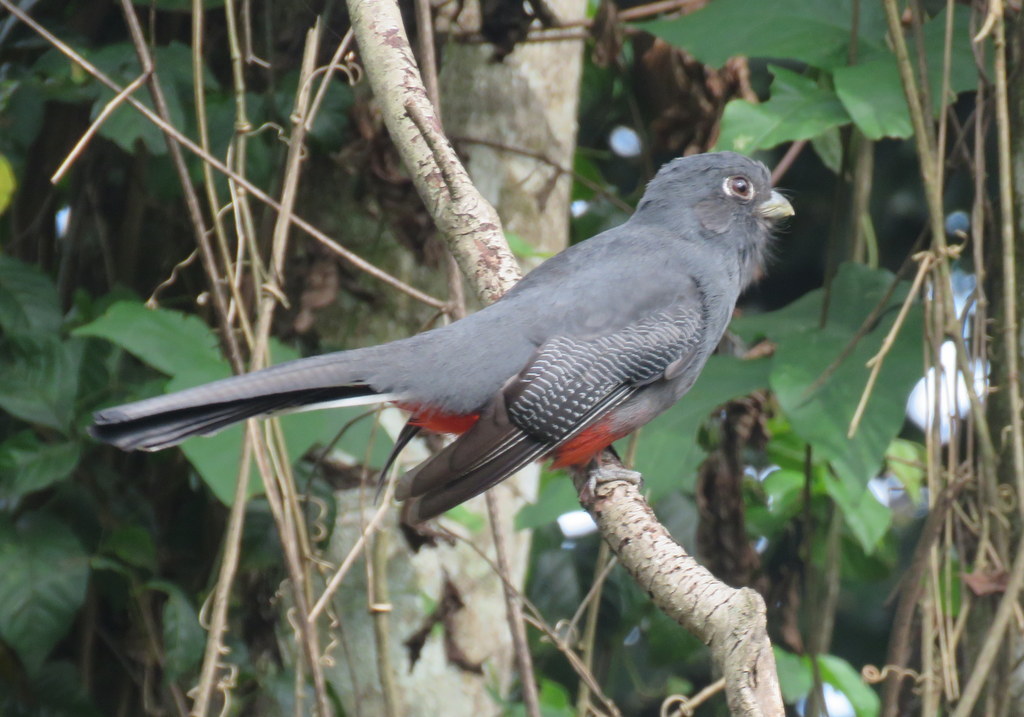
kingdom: Animalia
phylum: Chordata
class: Aves
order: Trogoniformes
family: Trogonidae
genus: Trogon
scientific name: Trogon surrucura
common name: Surucua trogon
